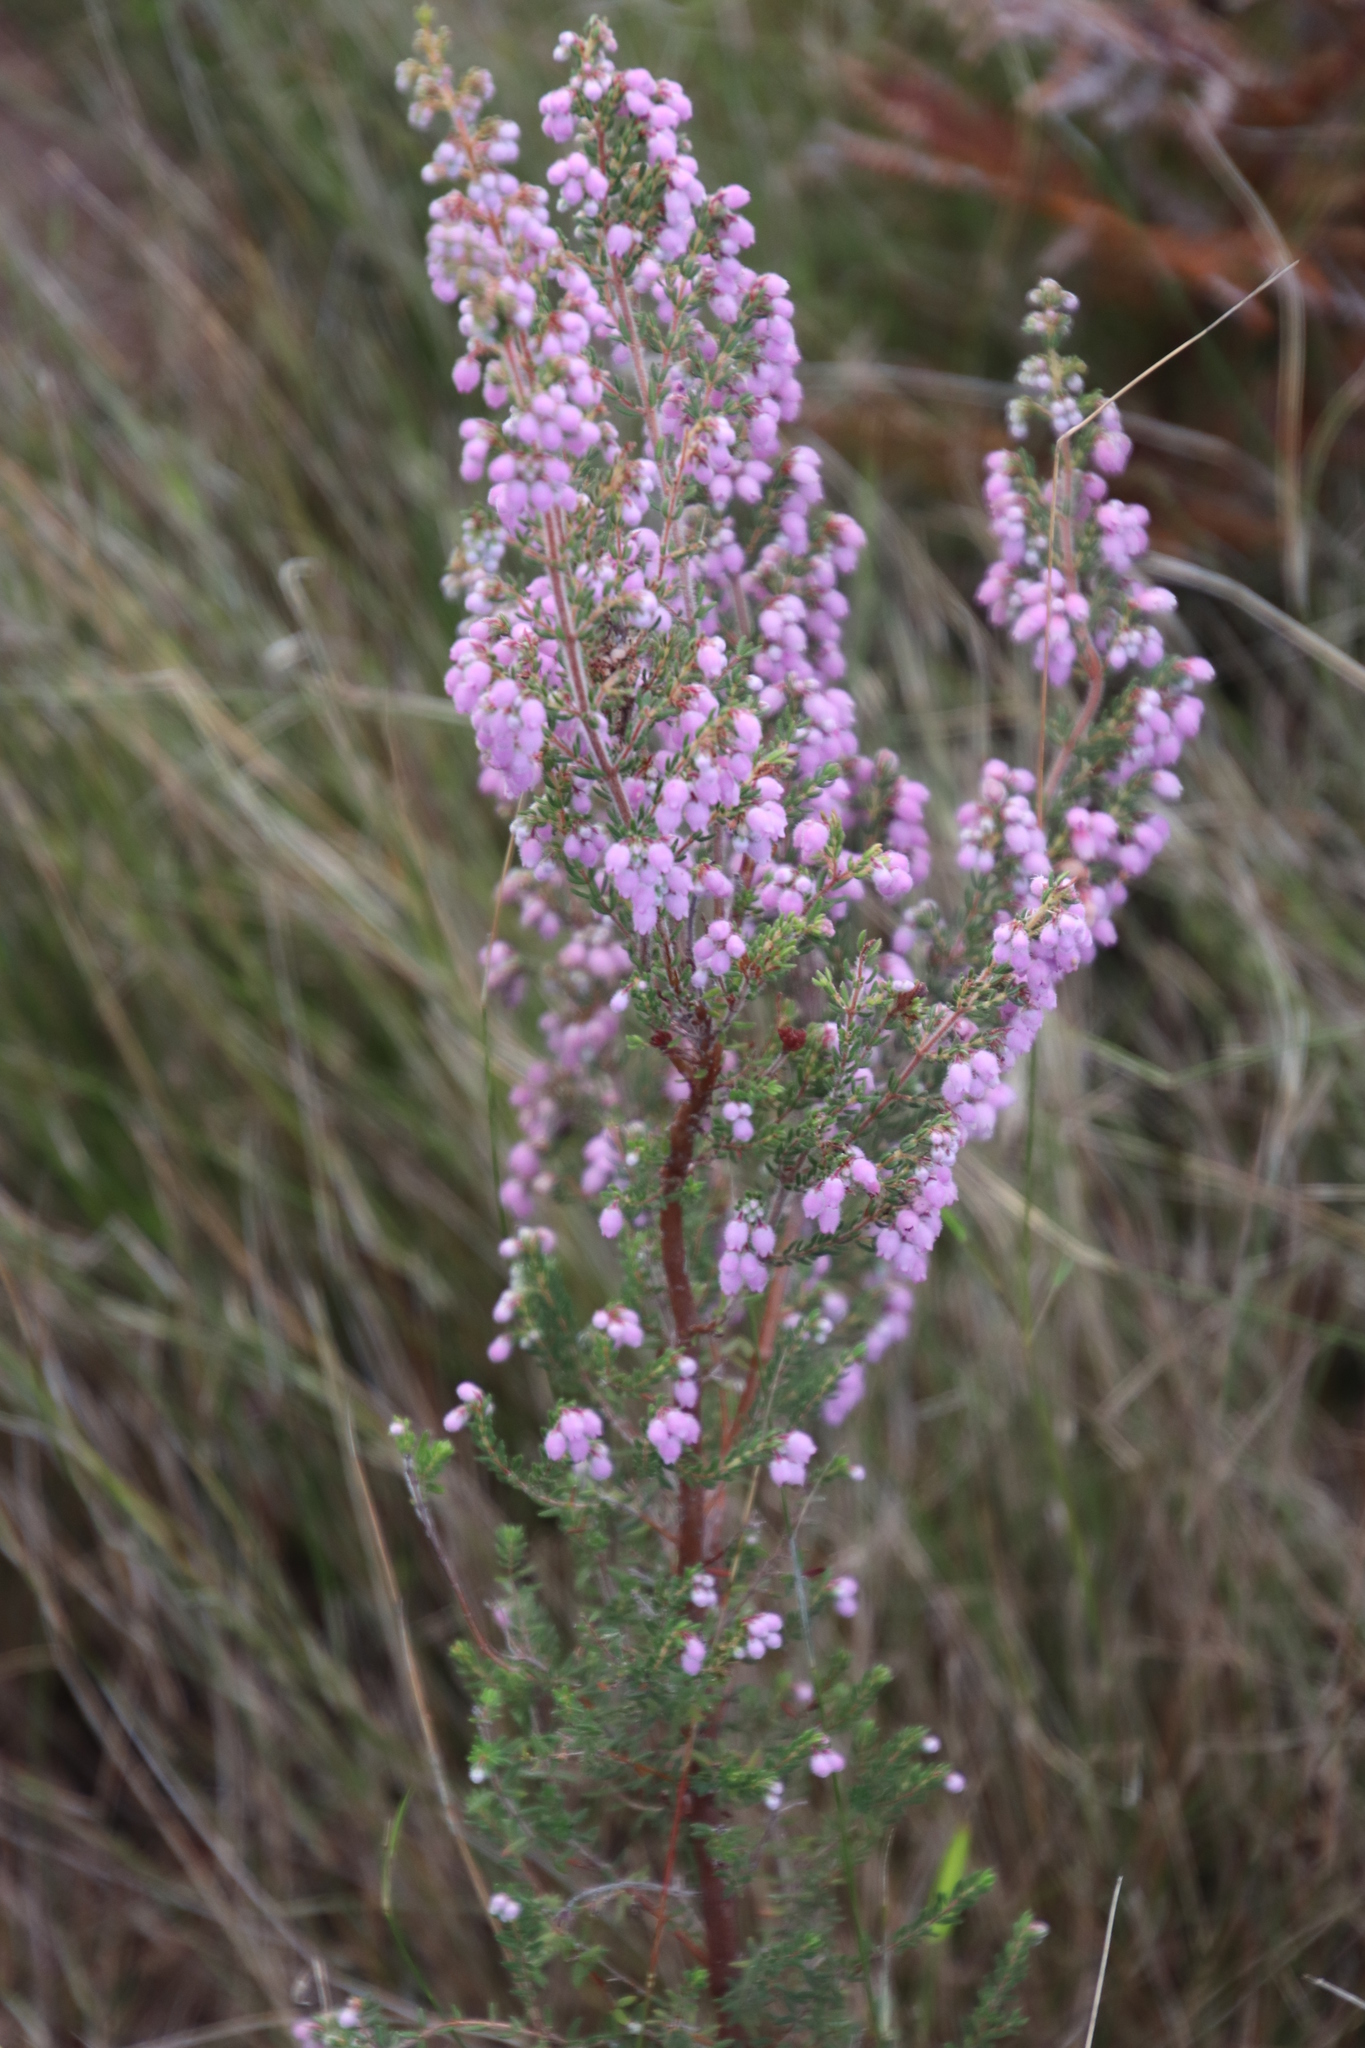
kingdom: Plantae
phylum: Tracheophyta
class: Magnoliopsida
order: Ericales
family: Ericaceae
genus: Erica
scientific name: Erica hirtiflora
